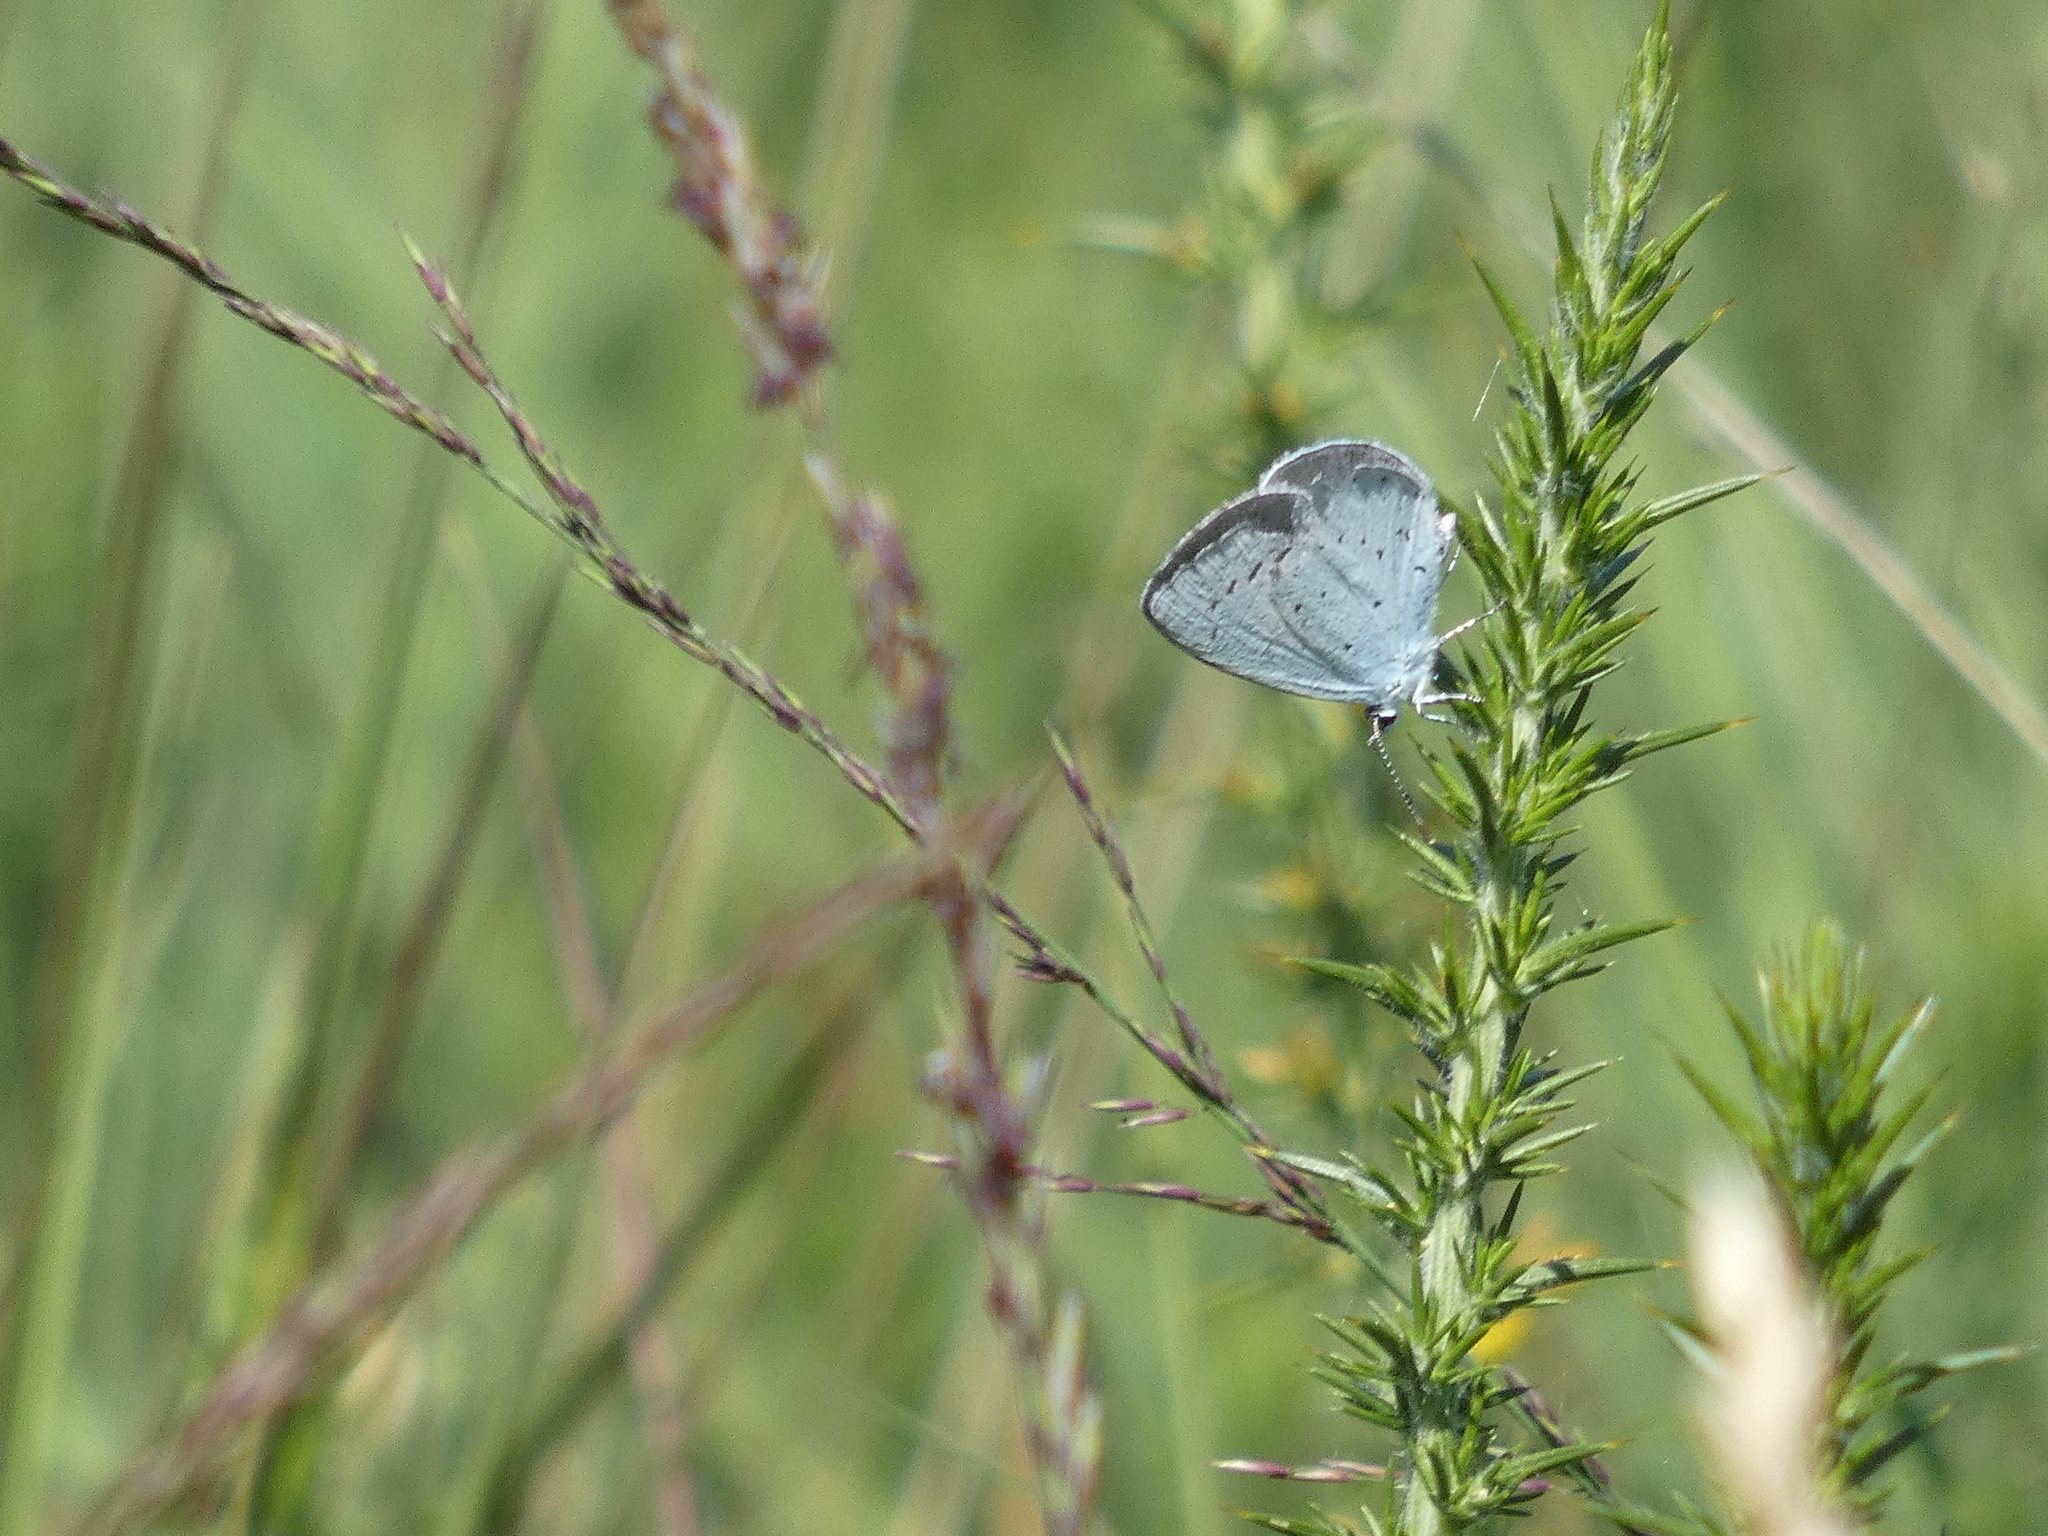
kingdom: Animalia
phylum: Arthropoda
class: Insecta
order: Lepidoptera
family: Lycaenidae
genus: Celastrina
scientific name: Celastrina argiolus
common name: Holly blue
